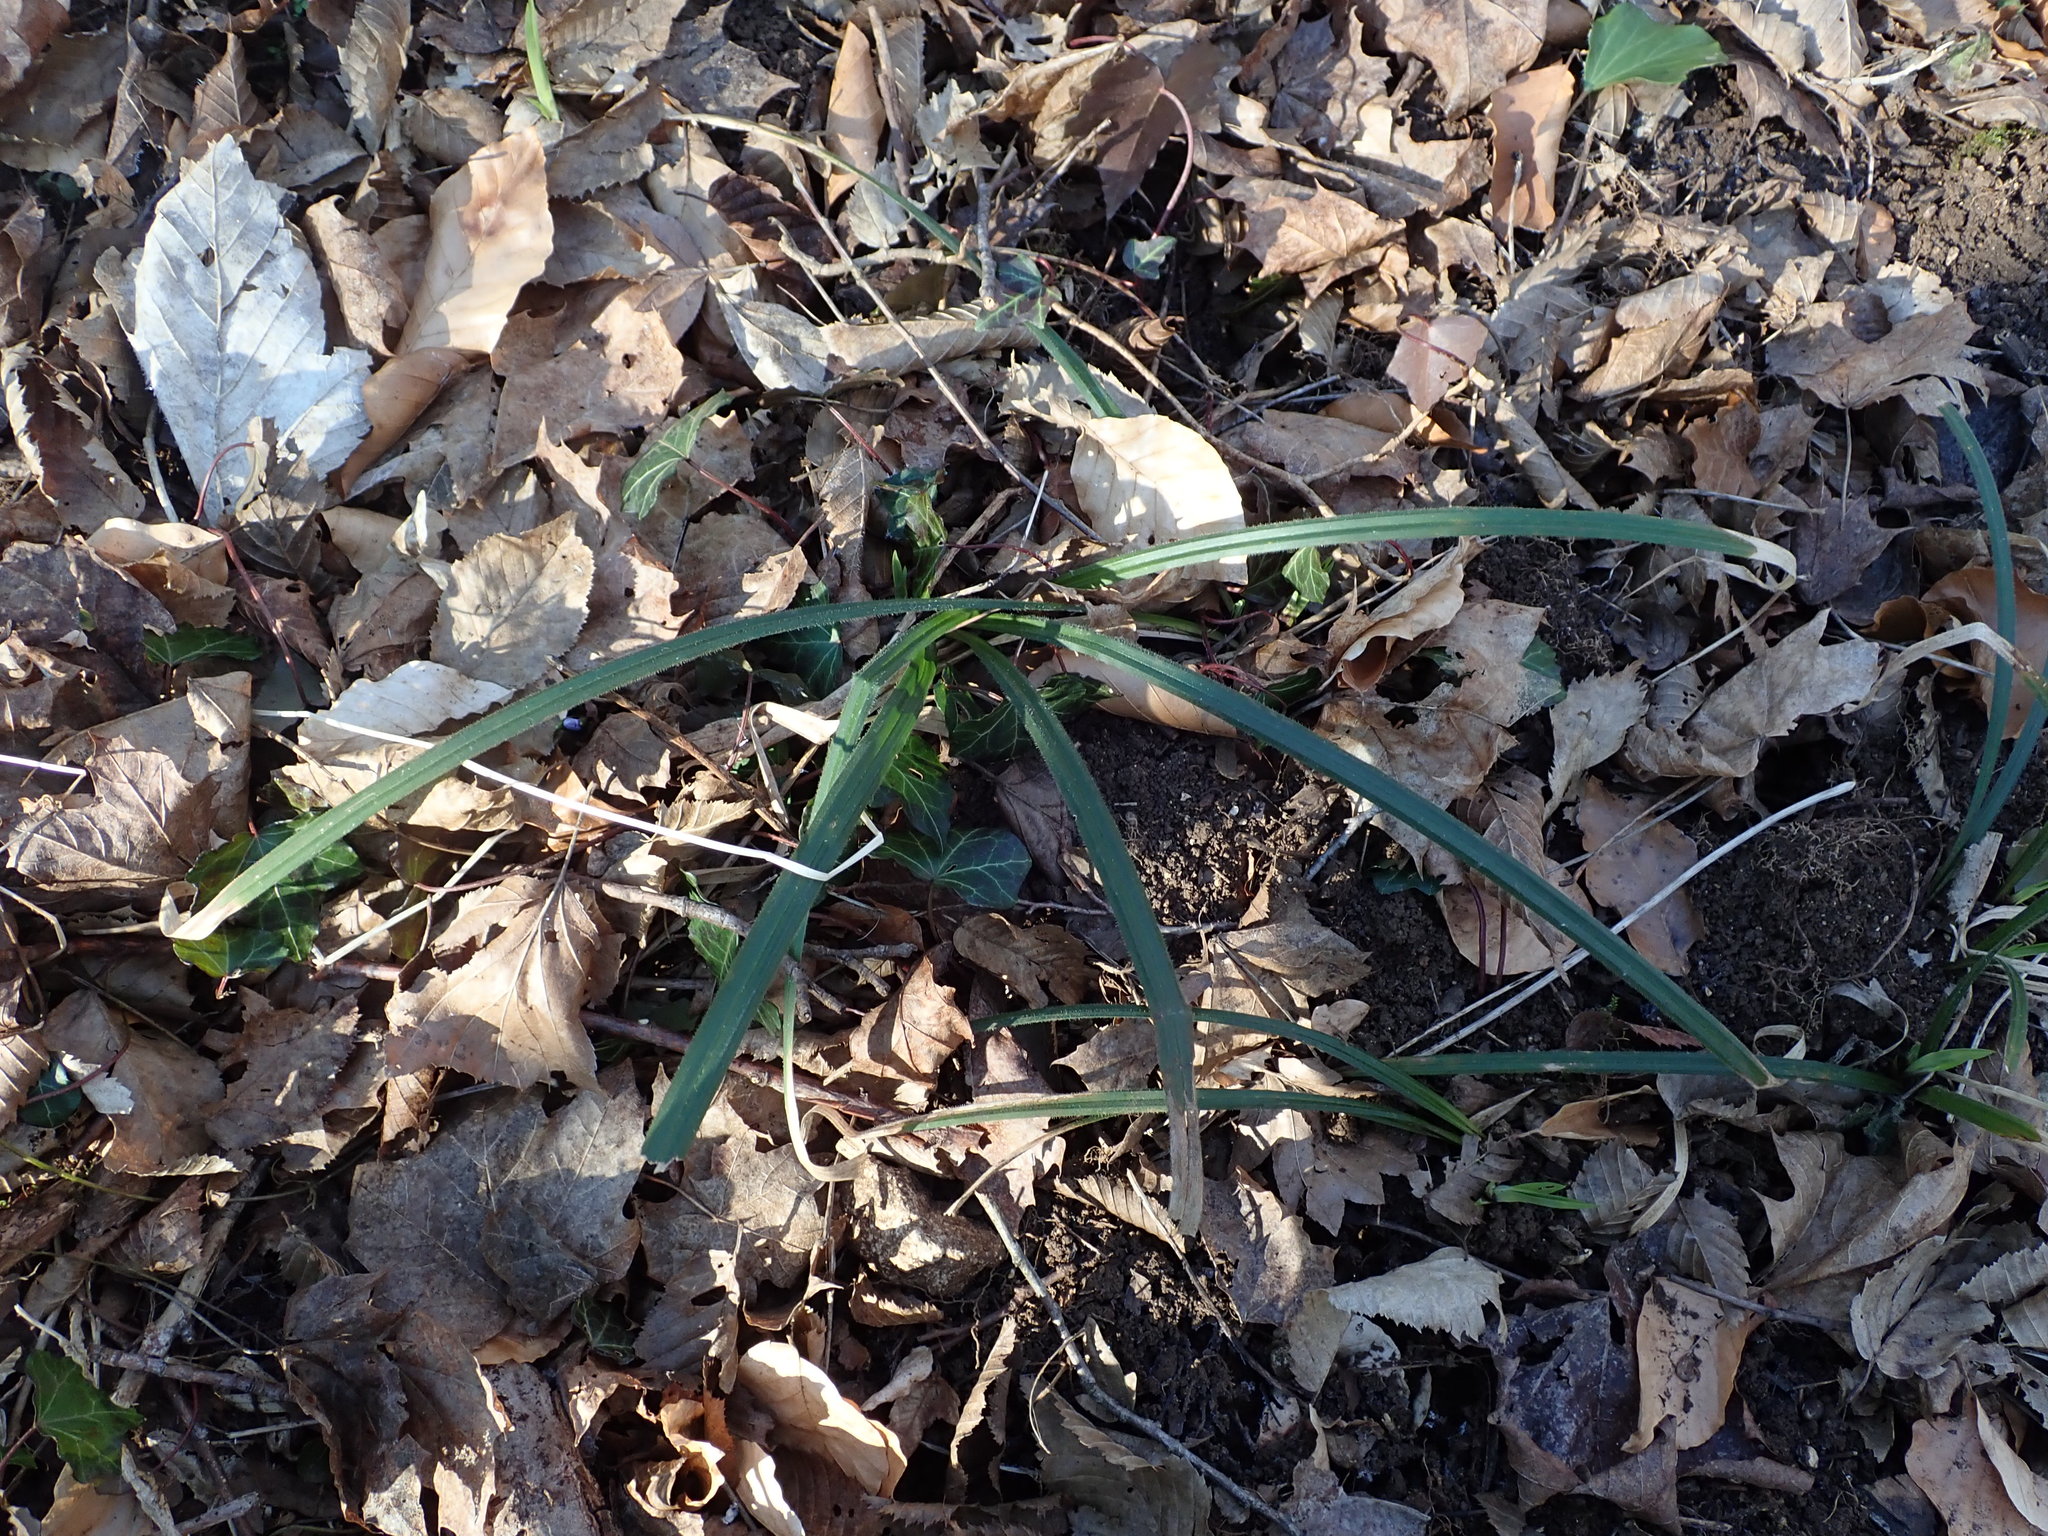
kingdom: Plantae
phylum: Tracheophyta
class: Liliopsida
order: Poales
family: Cyperaceae
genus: Carex
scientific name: Carex pilosa
